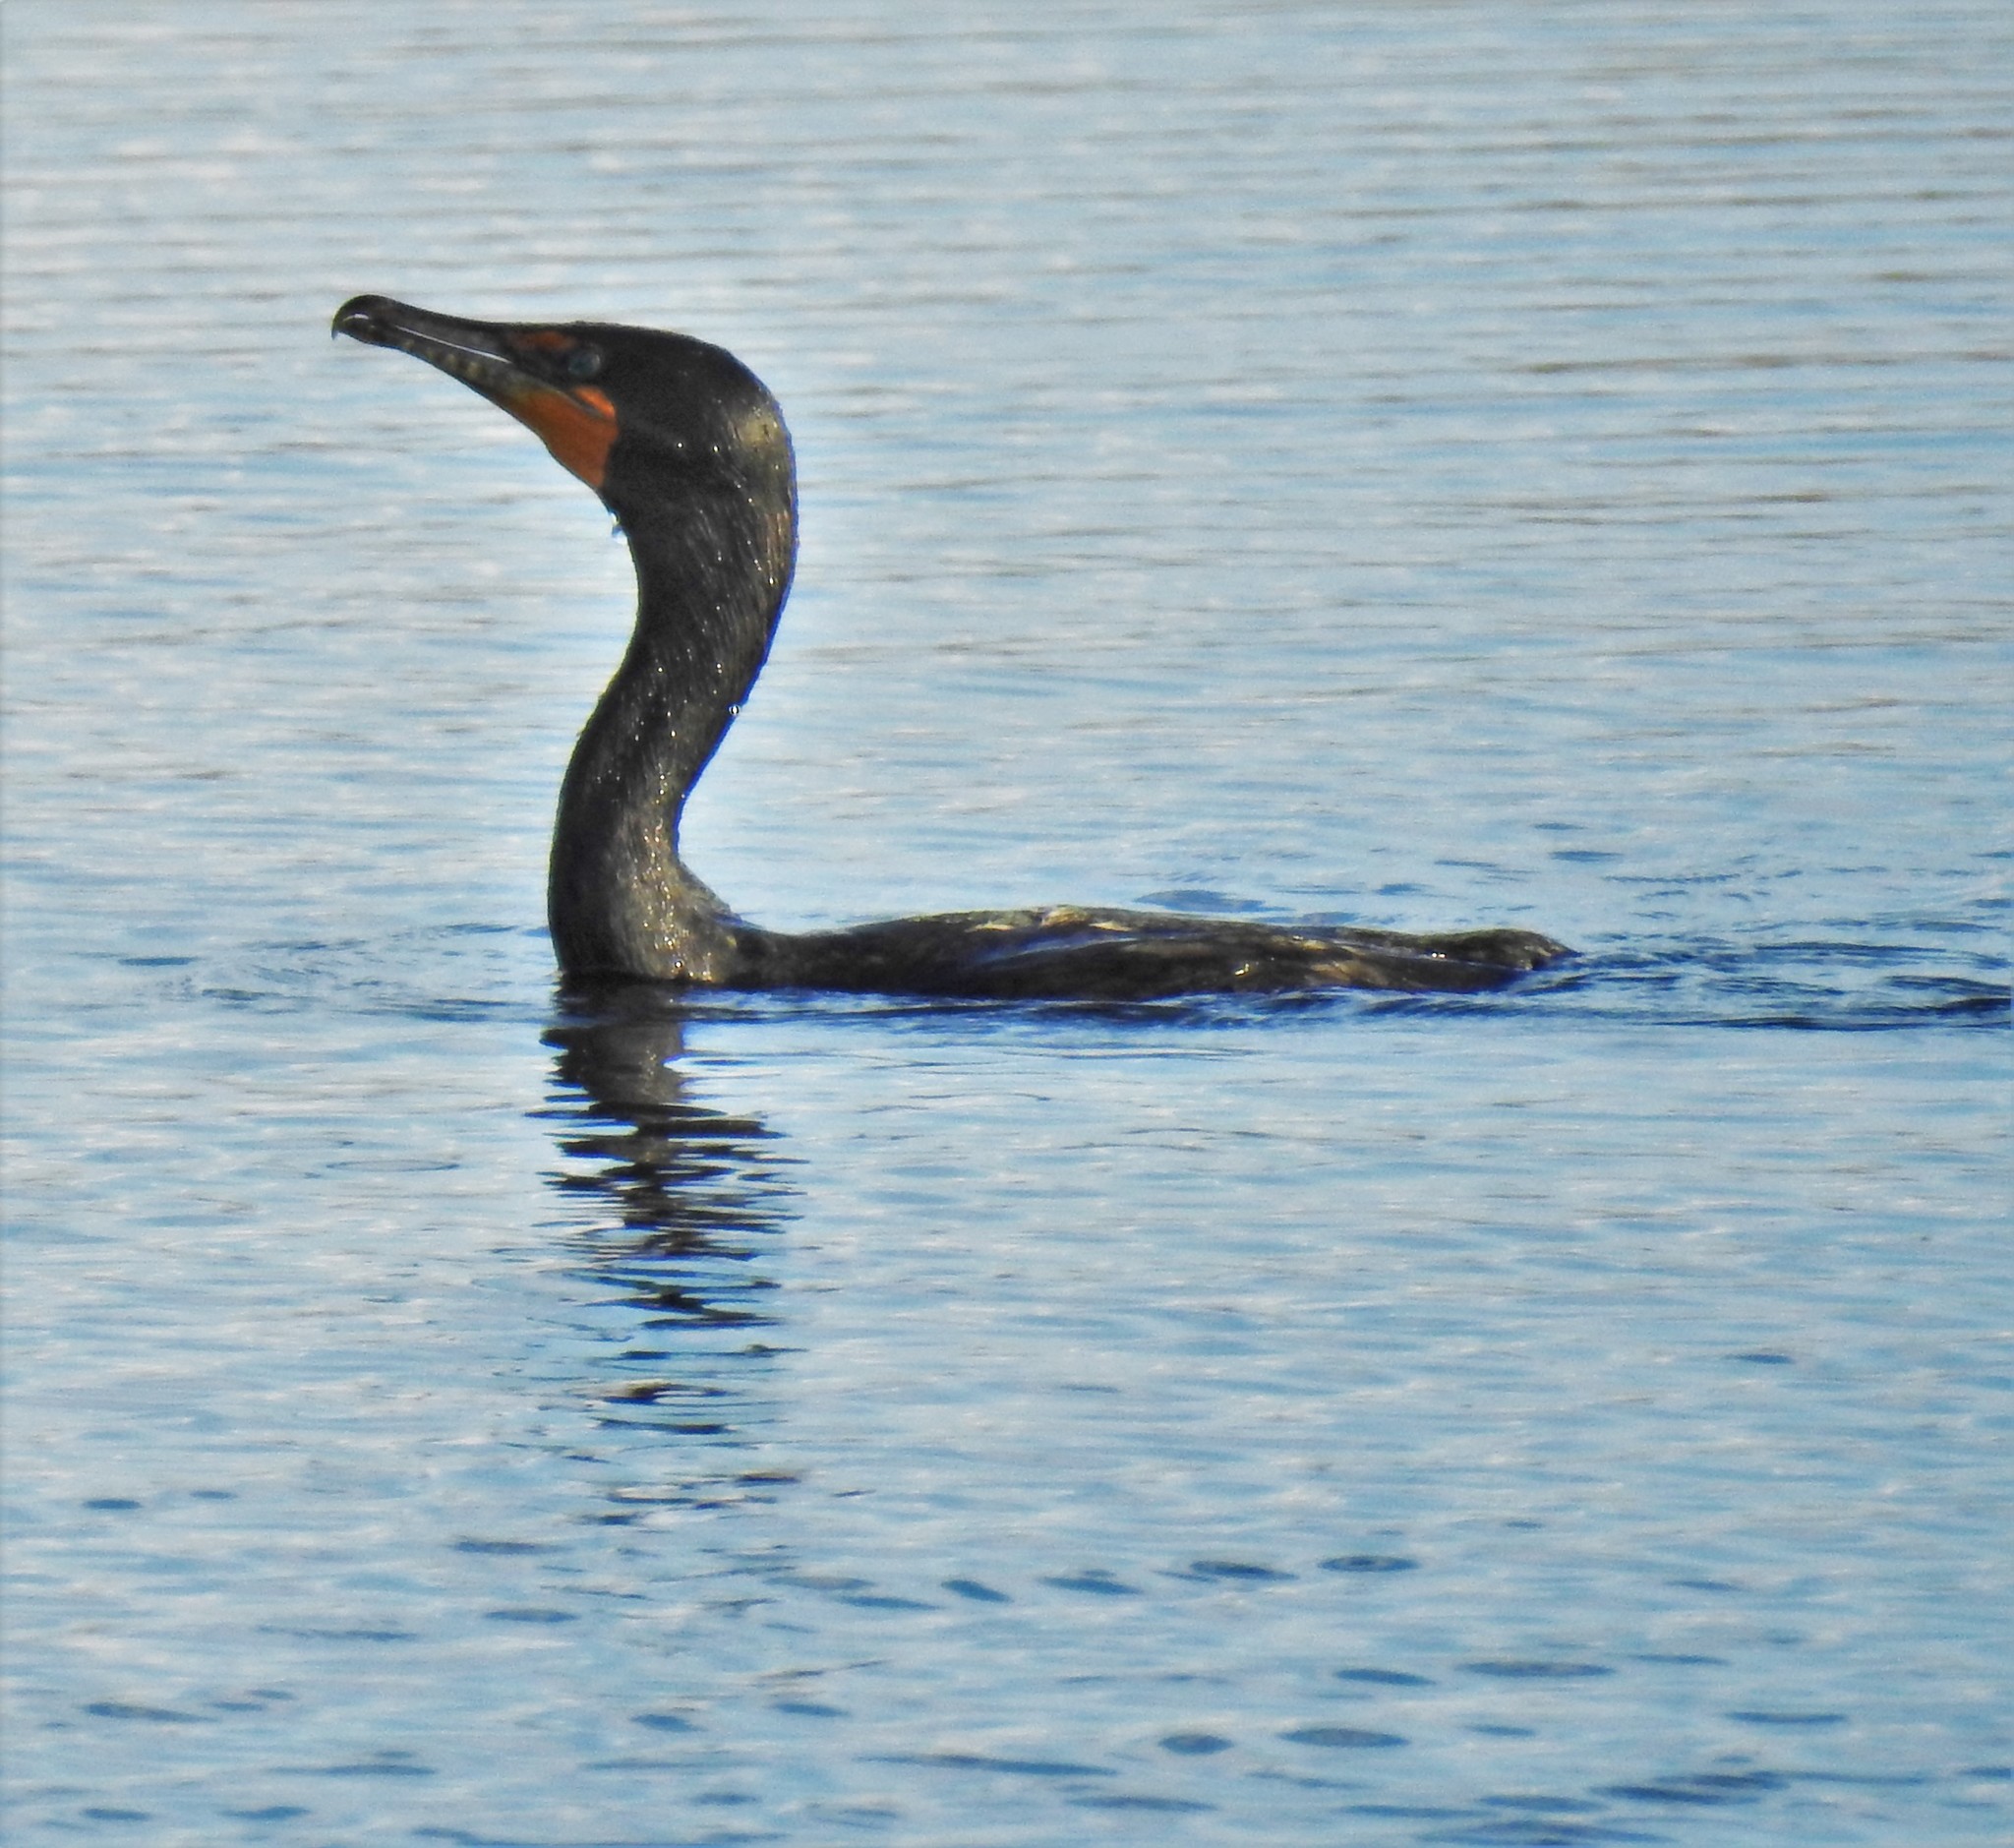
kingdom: Animalia
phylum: Chordata
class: Aves
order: Suliformes
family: Phalacrocoracidae
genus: Phalacrocorax
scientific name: Phalacrocorax auritus
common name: Double-crested cormorant
